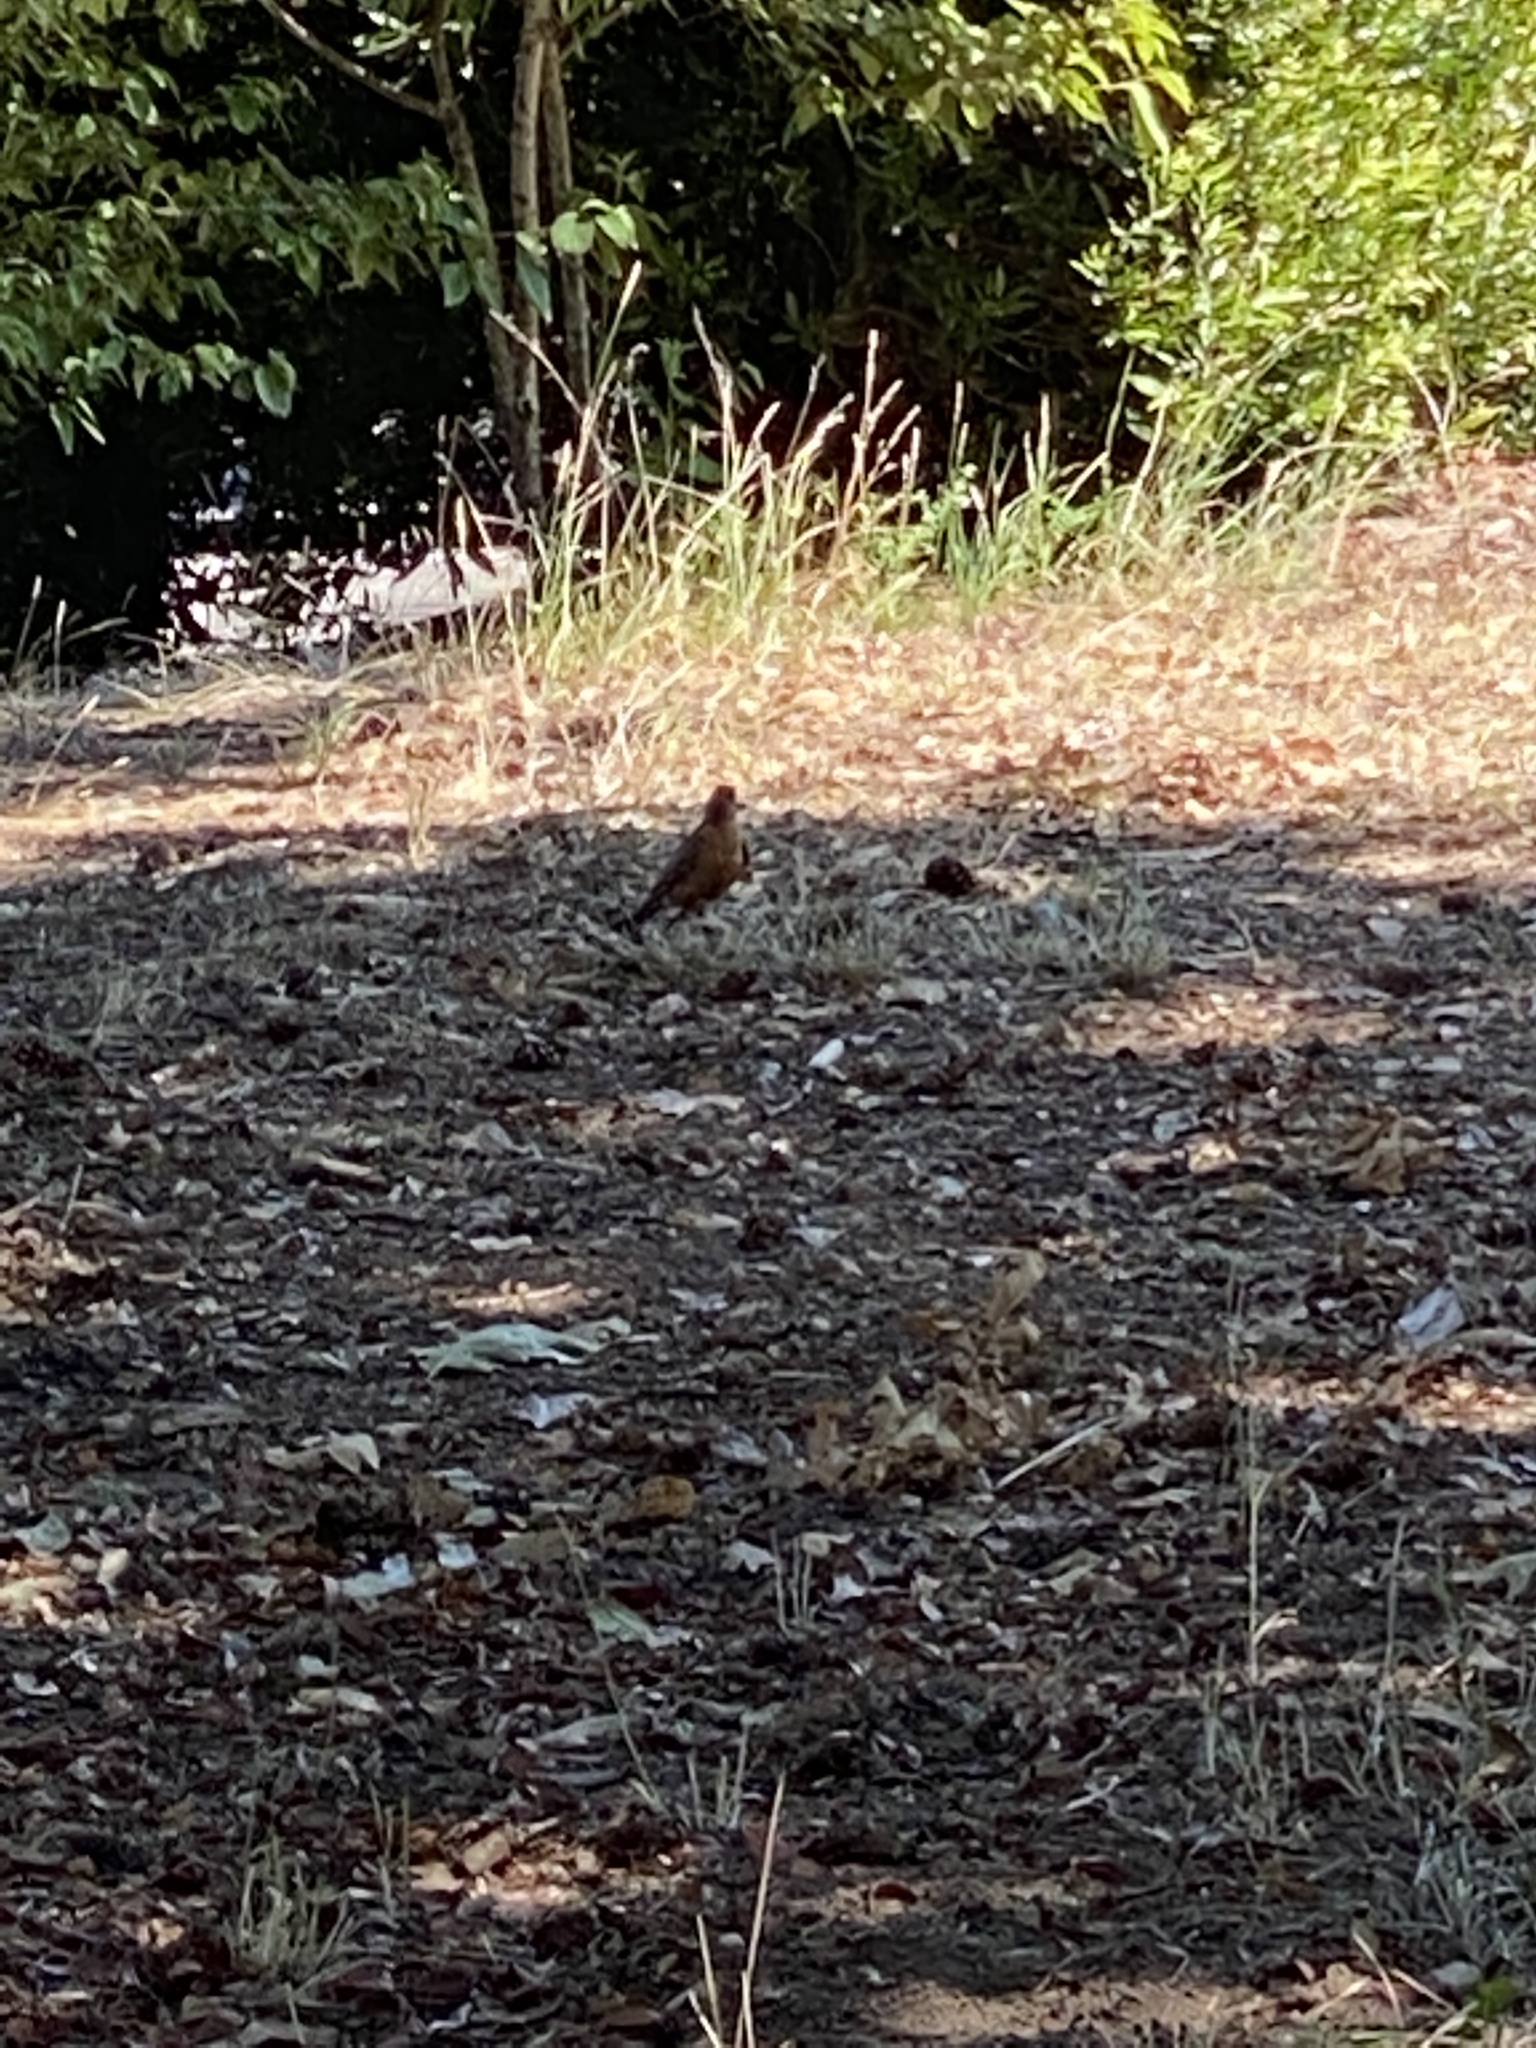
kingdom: Animalia
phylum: Chordata
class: Aves
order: Passeriformes
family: Turdidae
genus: Turdus
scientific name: Turdus migratorius
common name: American robin
